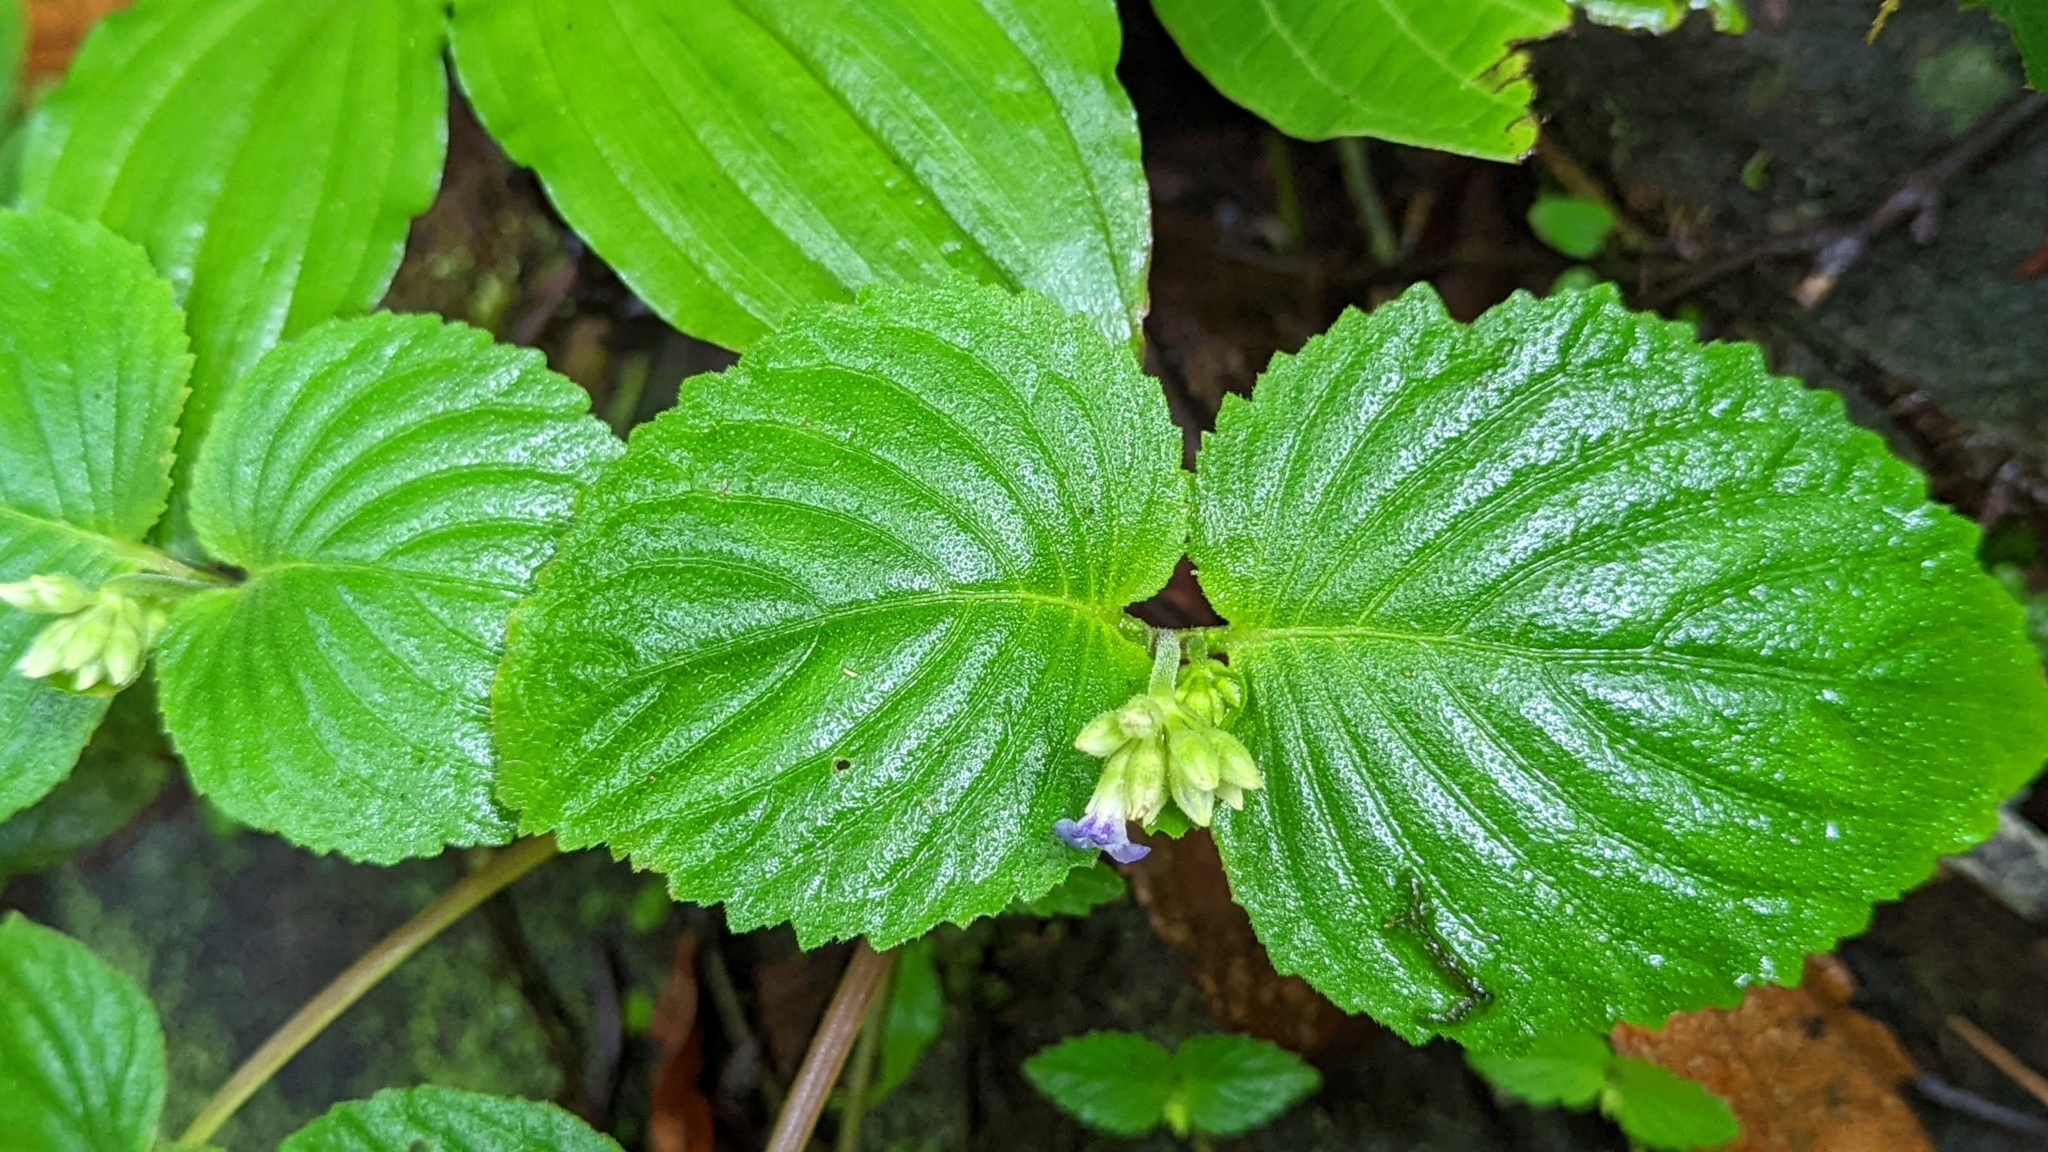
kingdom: Plantae
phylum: Tracheophyta
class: Magnoliopsida
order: Lamiales
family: Gesneriaceae
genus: Epithema
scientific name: Epithema carnosum
